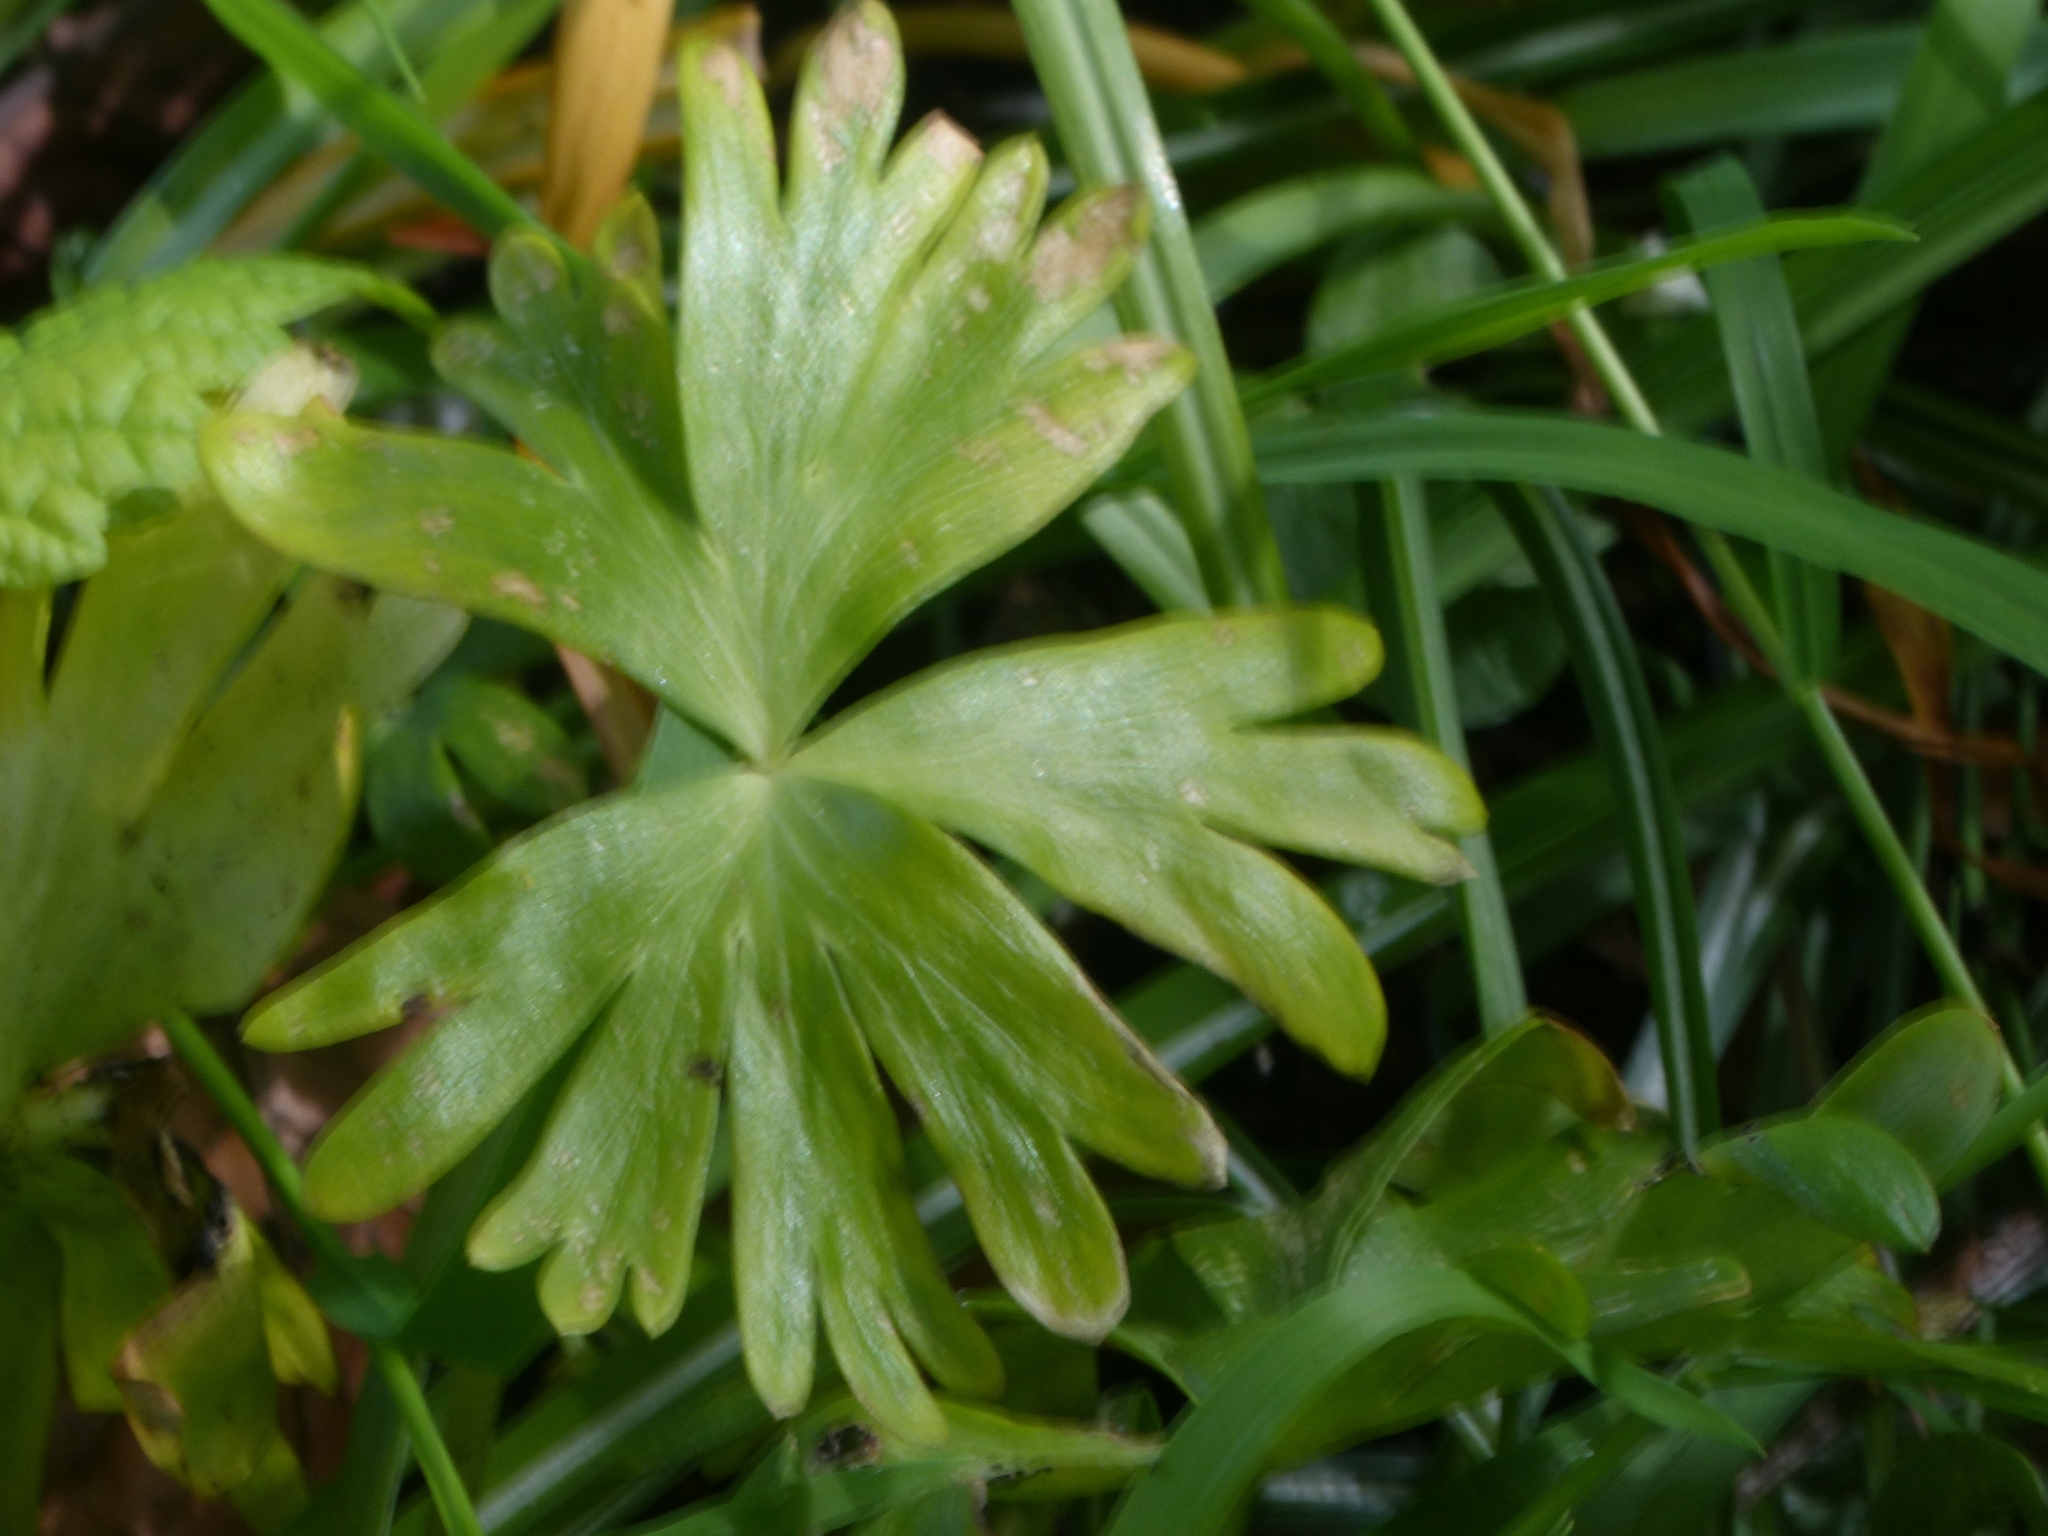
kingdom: Plantae
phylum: Tracheophyta
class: Magnoliopsida
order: Ranunculales
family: Ranunculaceae
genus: Eranthis
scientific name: Eranthis hyemalis
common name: Winter aconite
